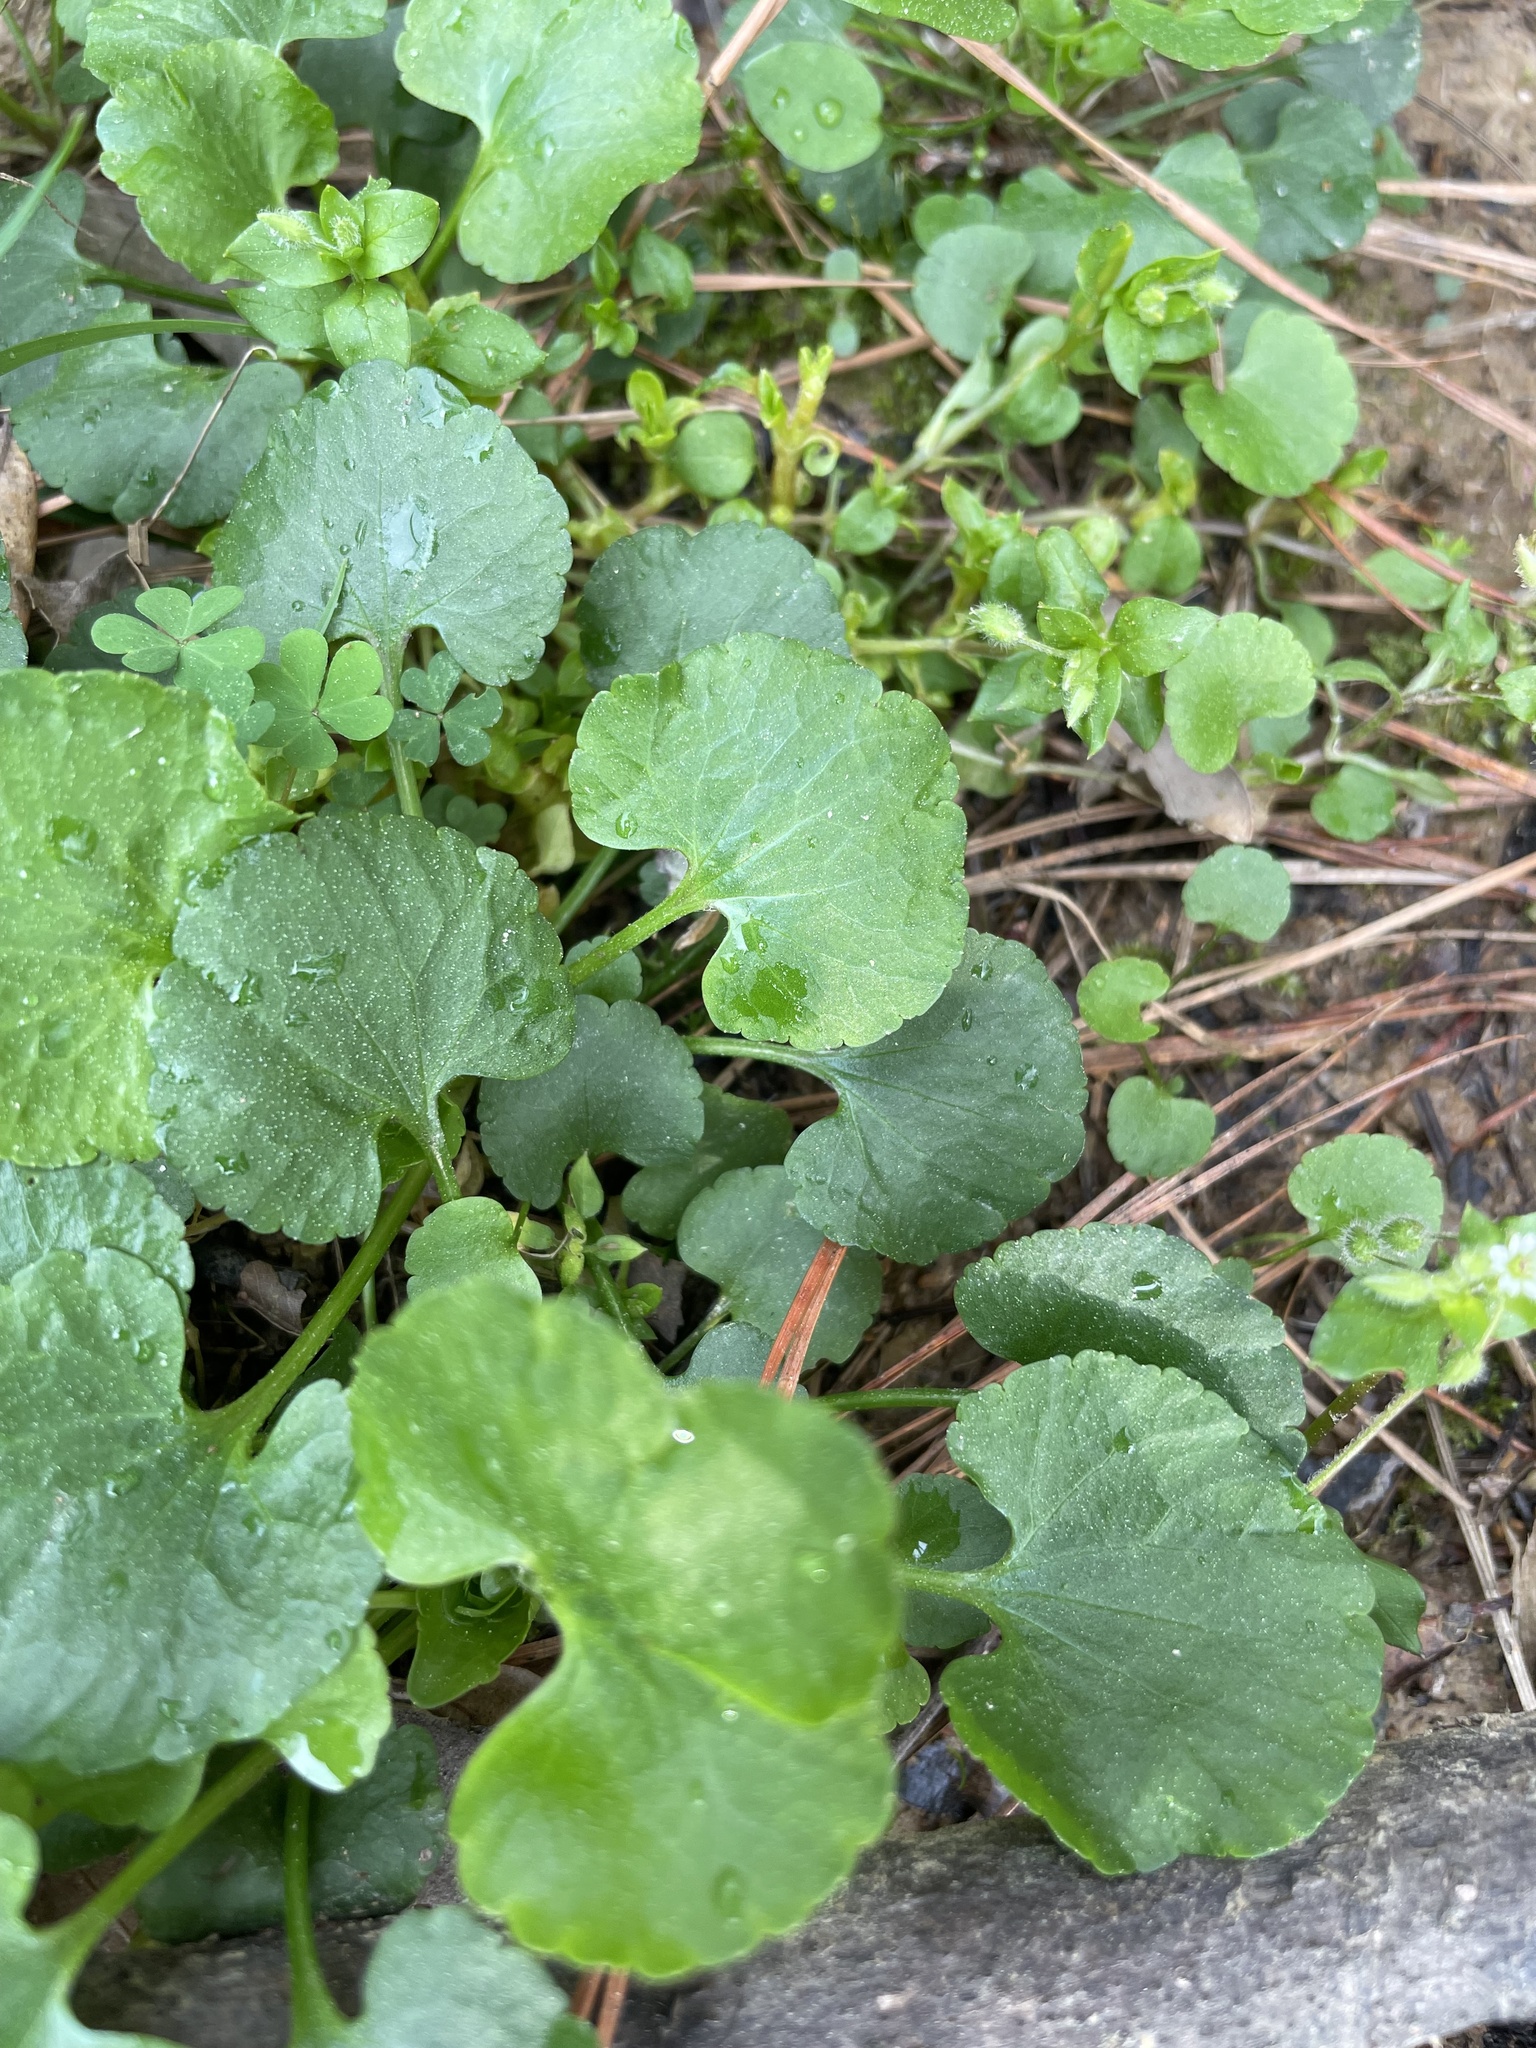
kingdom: Plantae
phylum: Tracheophyta
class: Magnoliopsida
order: Ranunculales
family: Ranunculaceae
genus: Ranunculus
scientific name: Ranunculus abortivus
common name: Early wood buttercup
